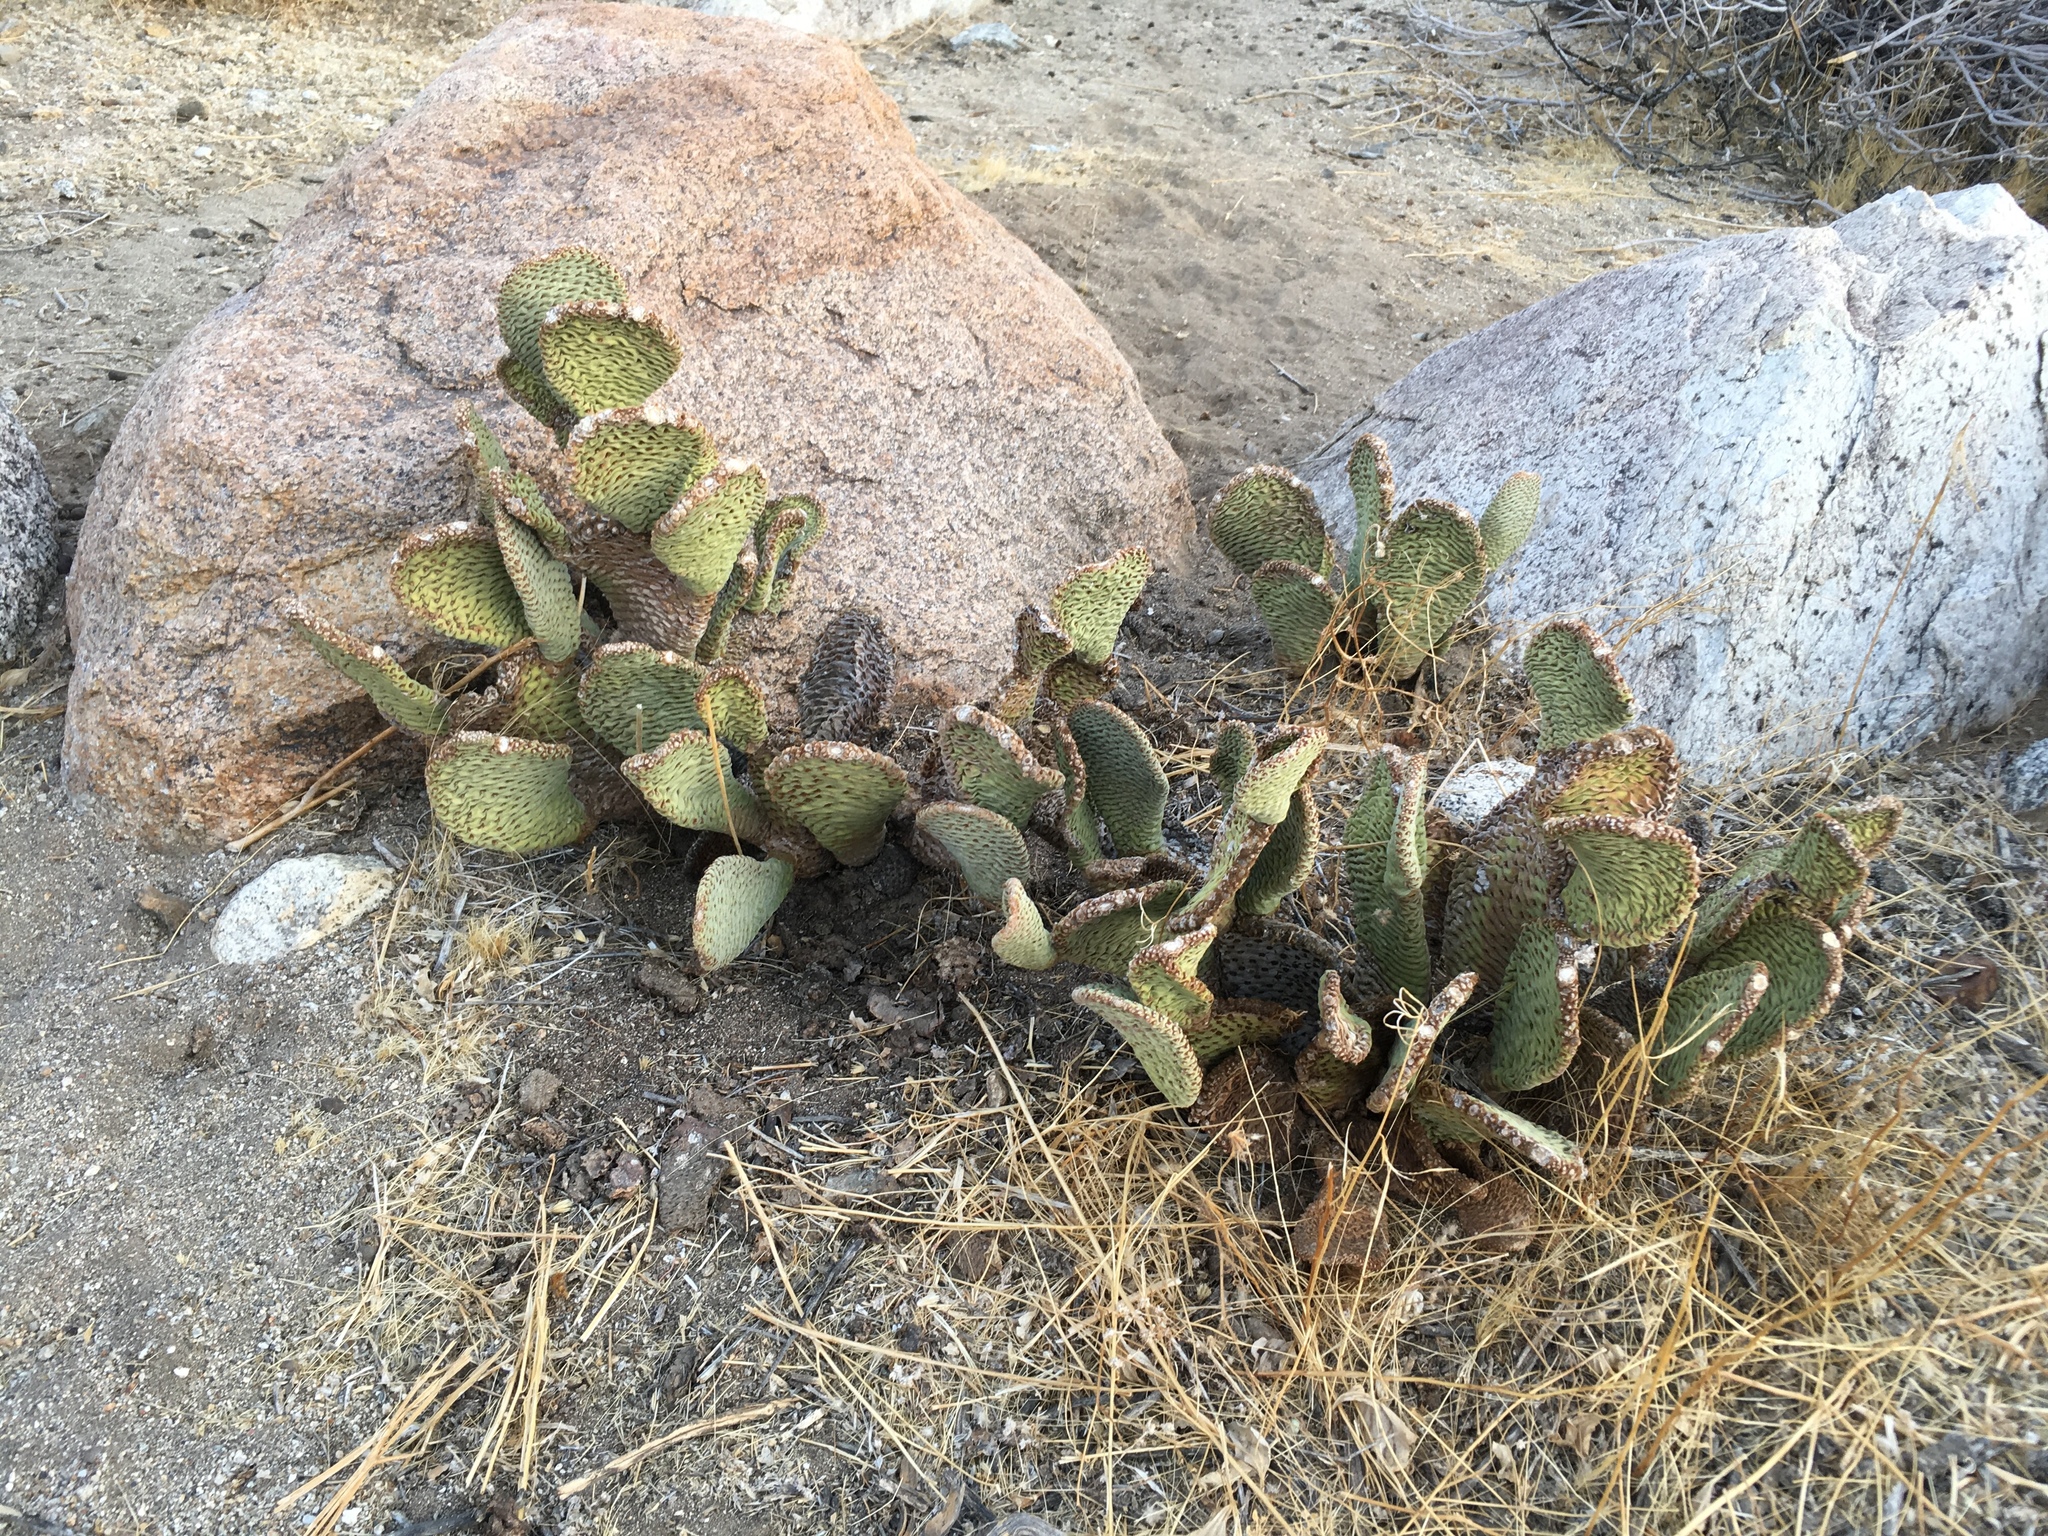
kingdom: Plantae
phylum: Tracheophyta
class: Magnoliopsida
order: Caryophyllales
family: Cactaceae
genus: Opuntia
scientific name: Opuntia basilaris
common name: Beavertail prickly-pear
